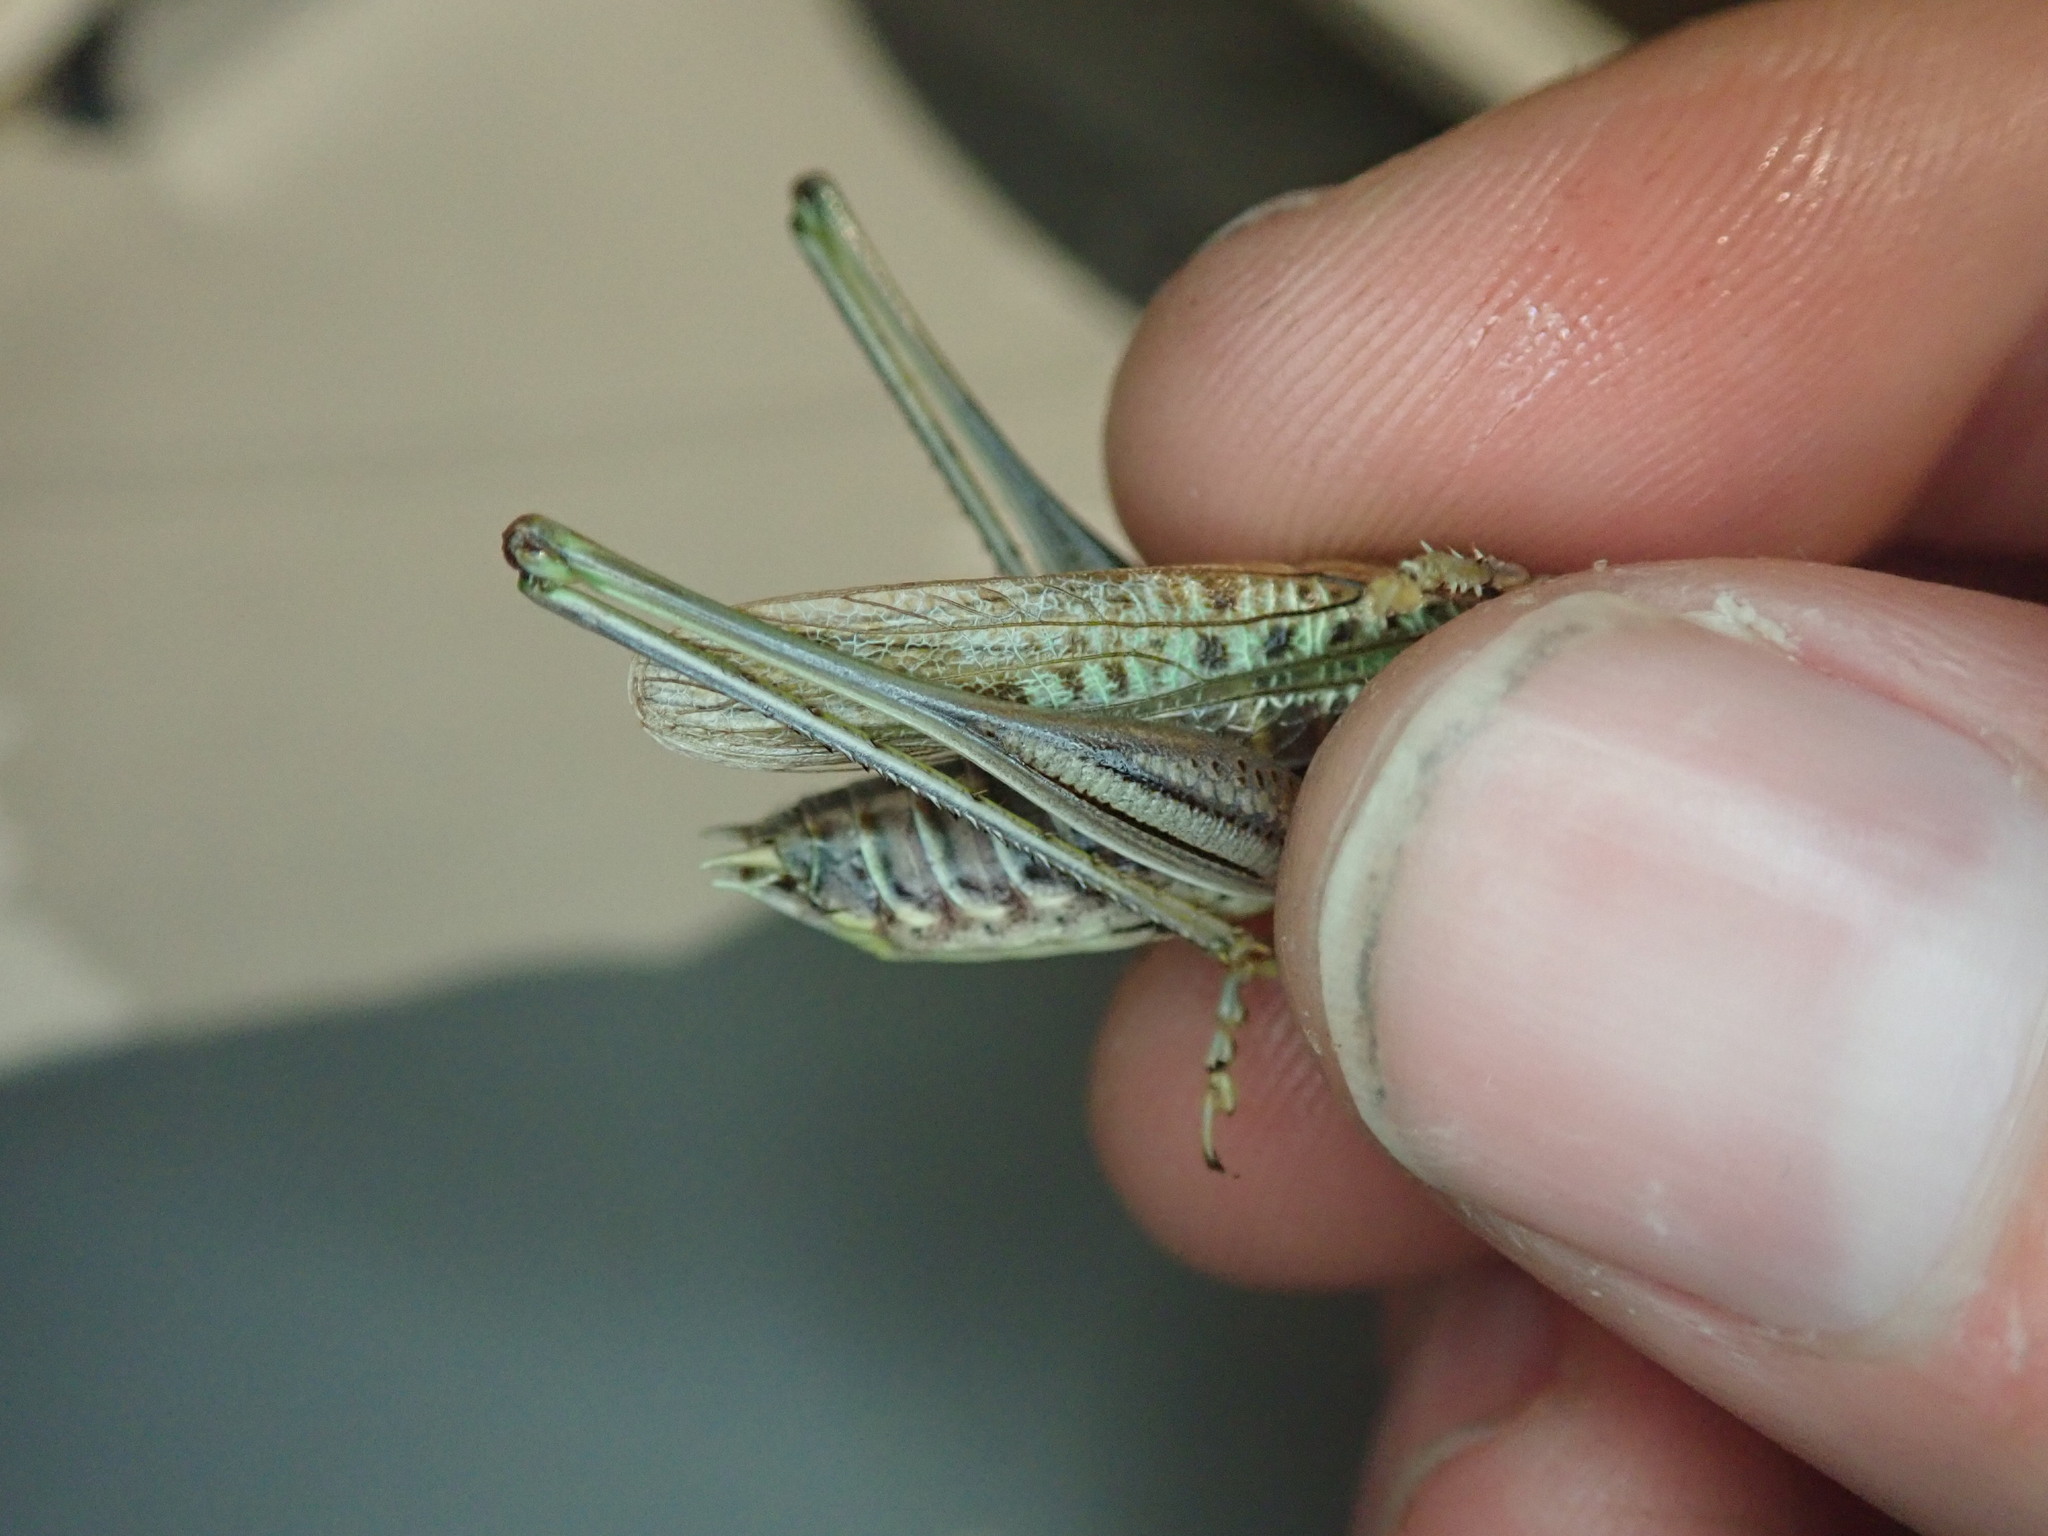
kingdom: Animalia
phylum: Arthropoda
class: Insecta
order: Orthoptera
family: Tettigoniidae
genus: Gampsocleis
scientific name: Gampsocleis glabra
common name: Heath bushcricket
